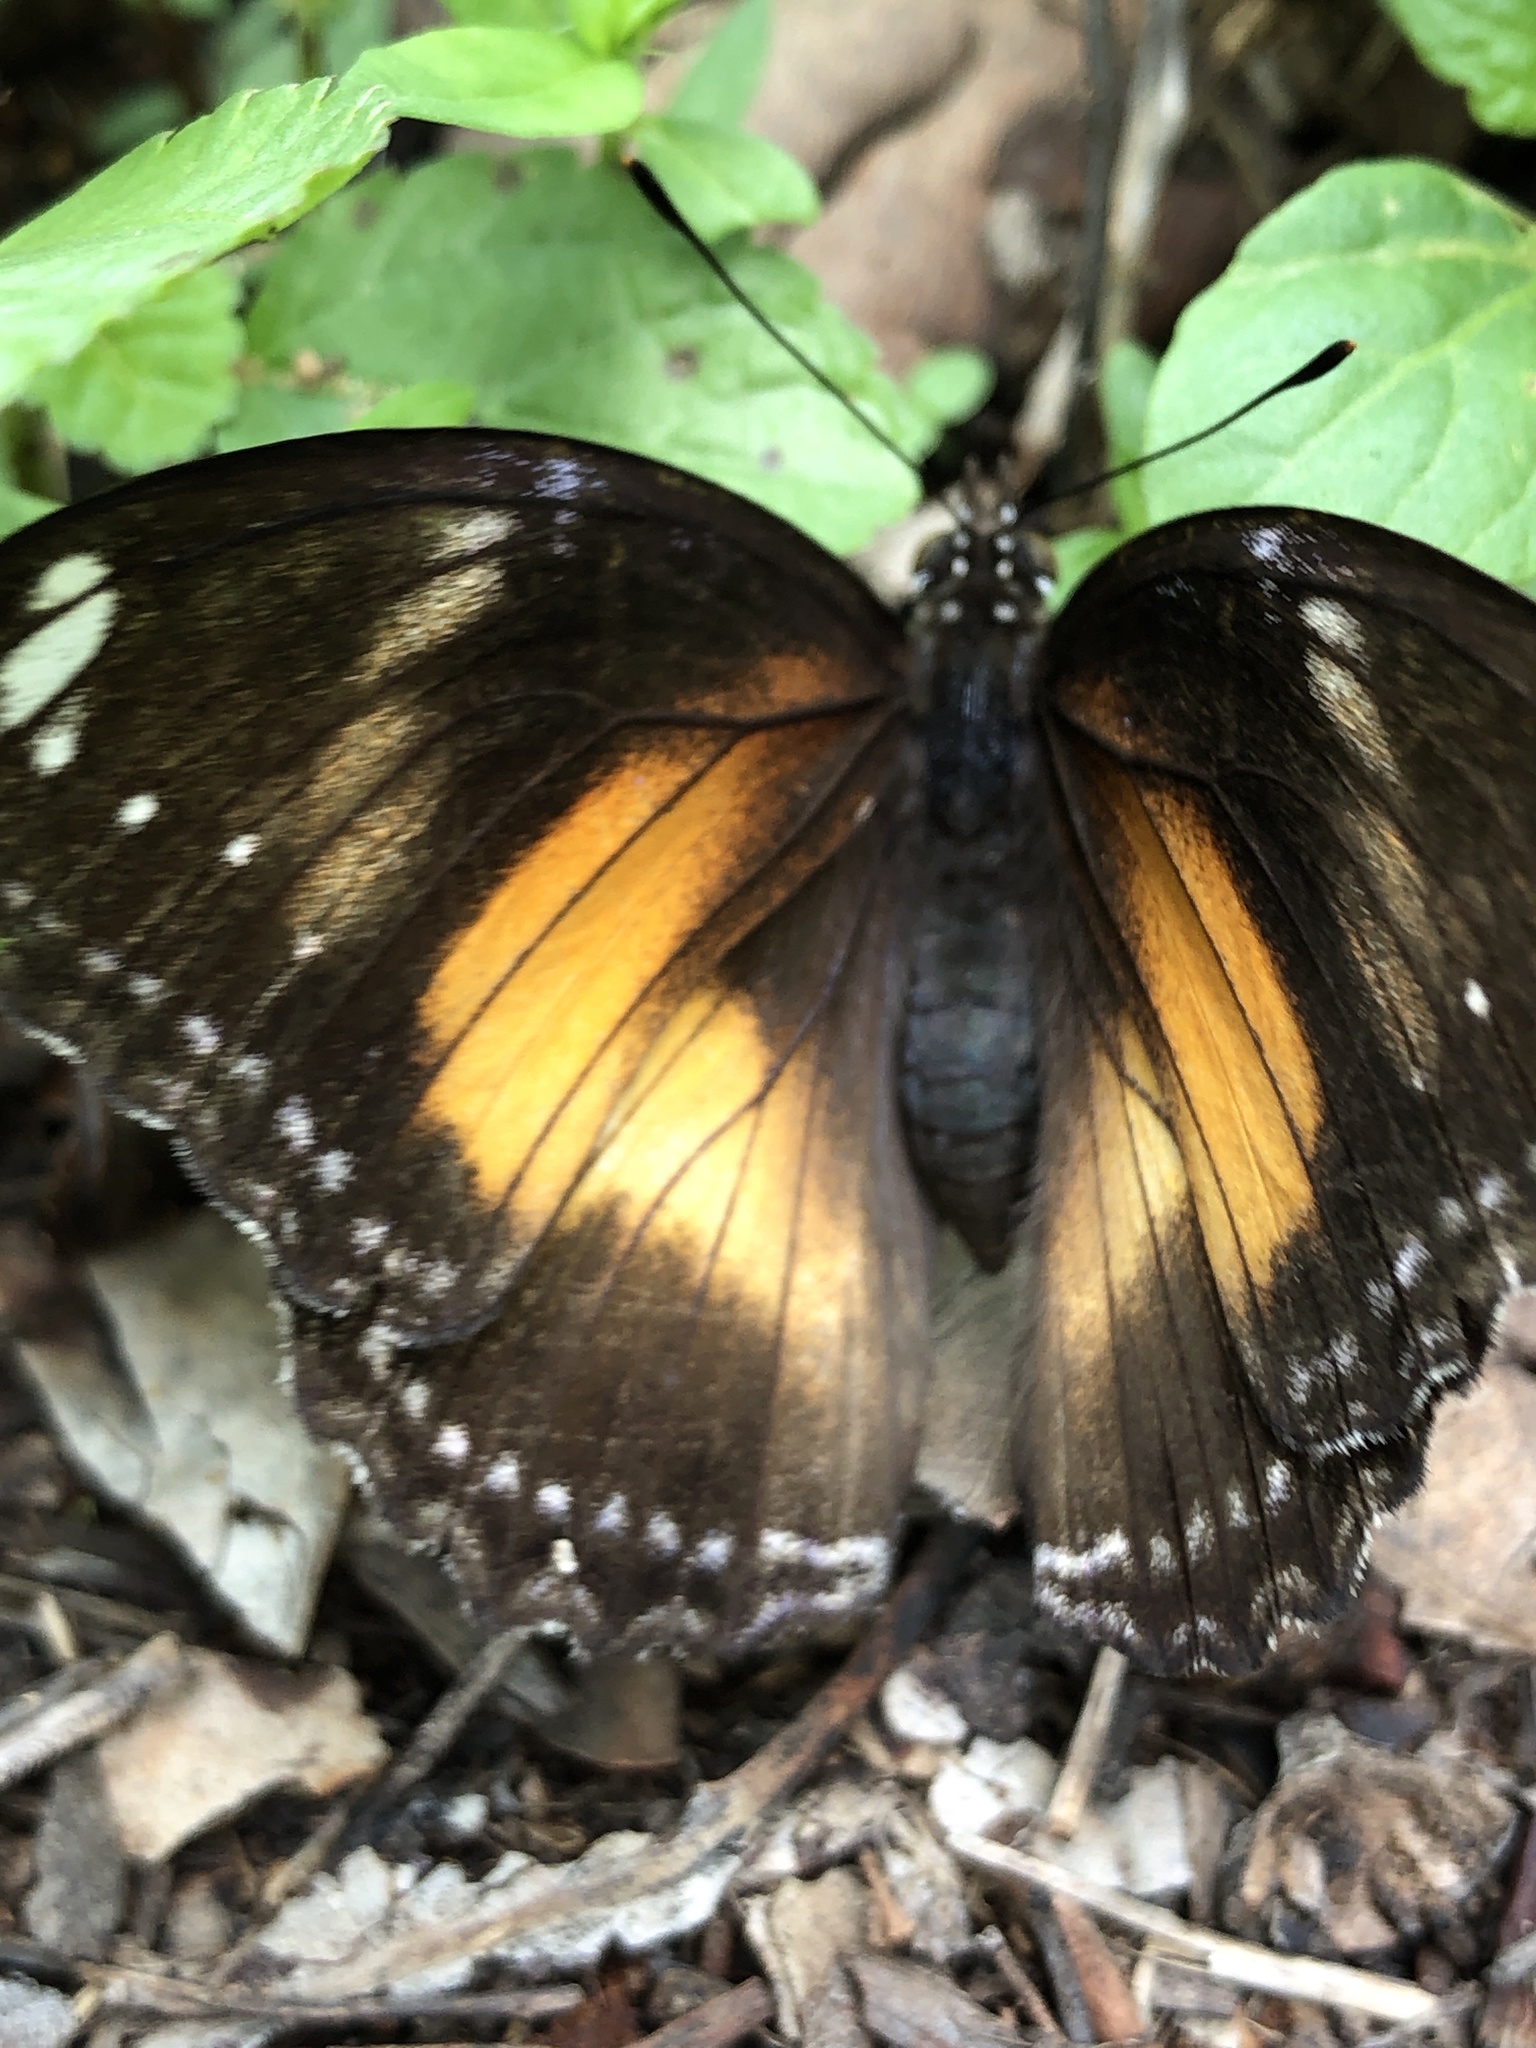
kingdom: Animalia
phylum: Arthropoda
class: Insecta
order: Lepidoptera
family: Nymphalidae
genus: Hypolimnas
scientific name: Hypolimnas bolina
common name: Great eggfly
